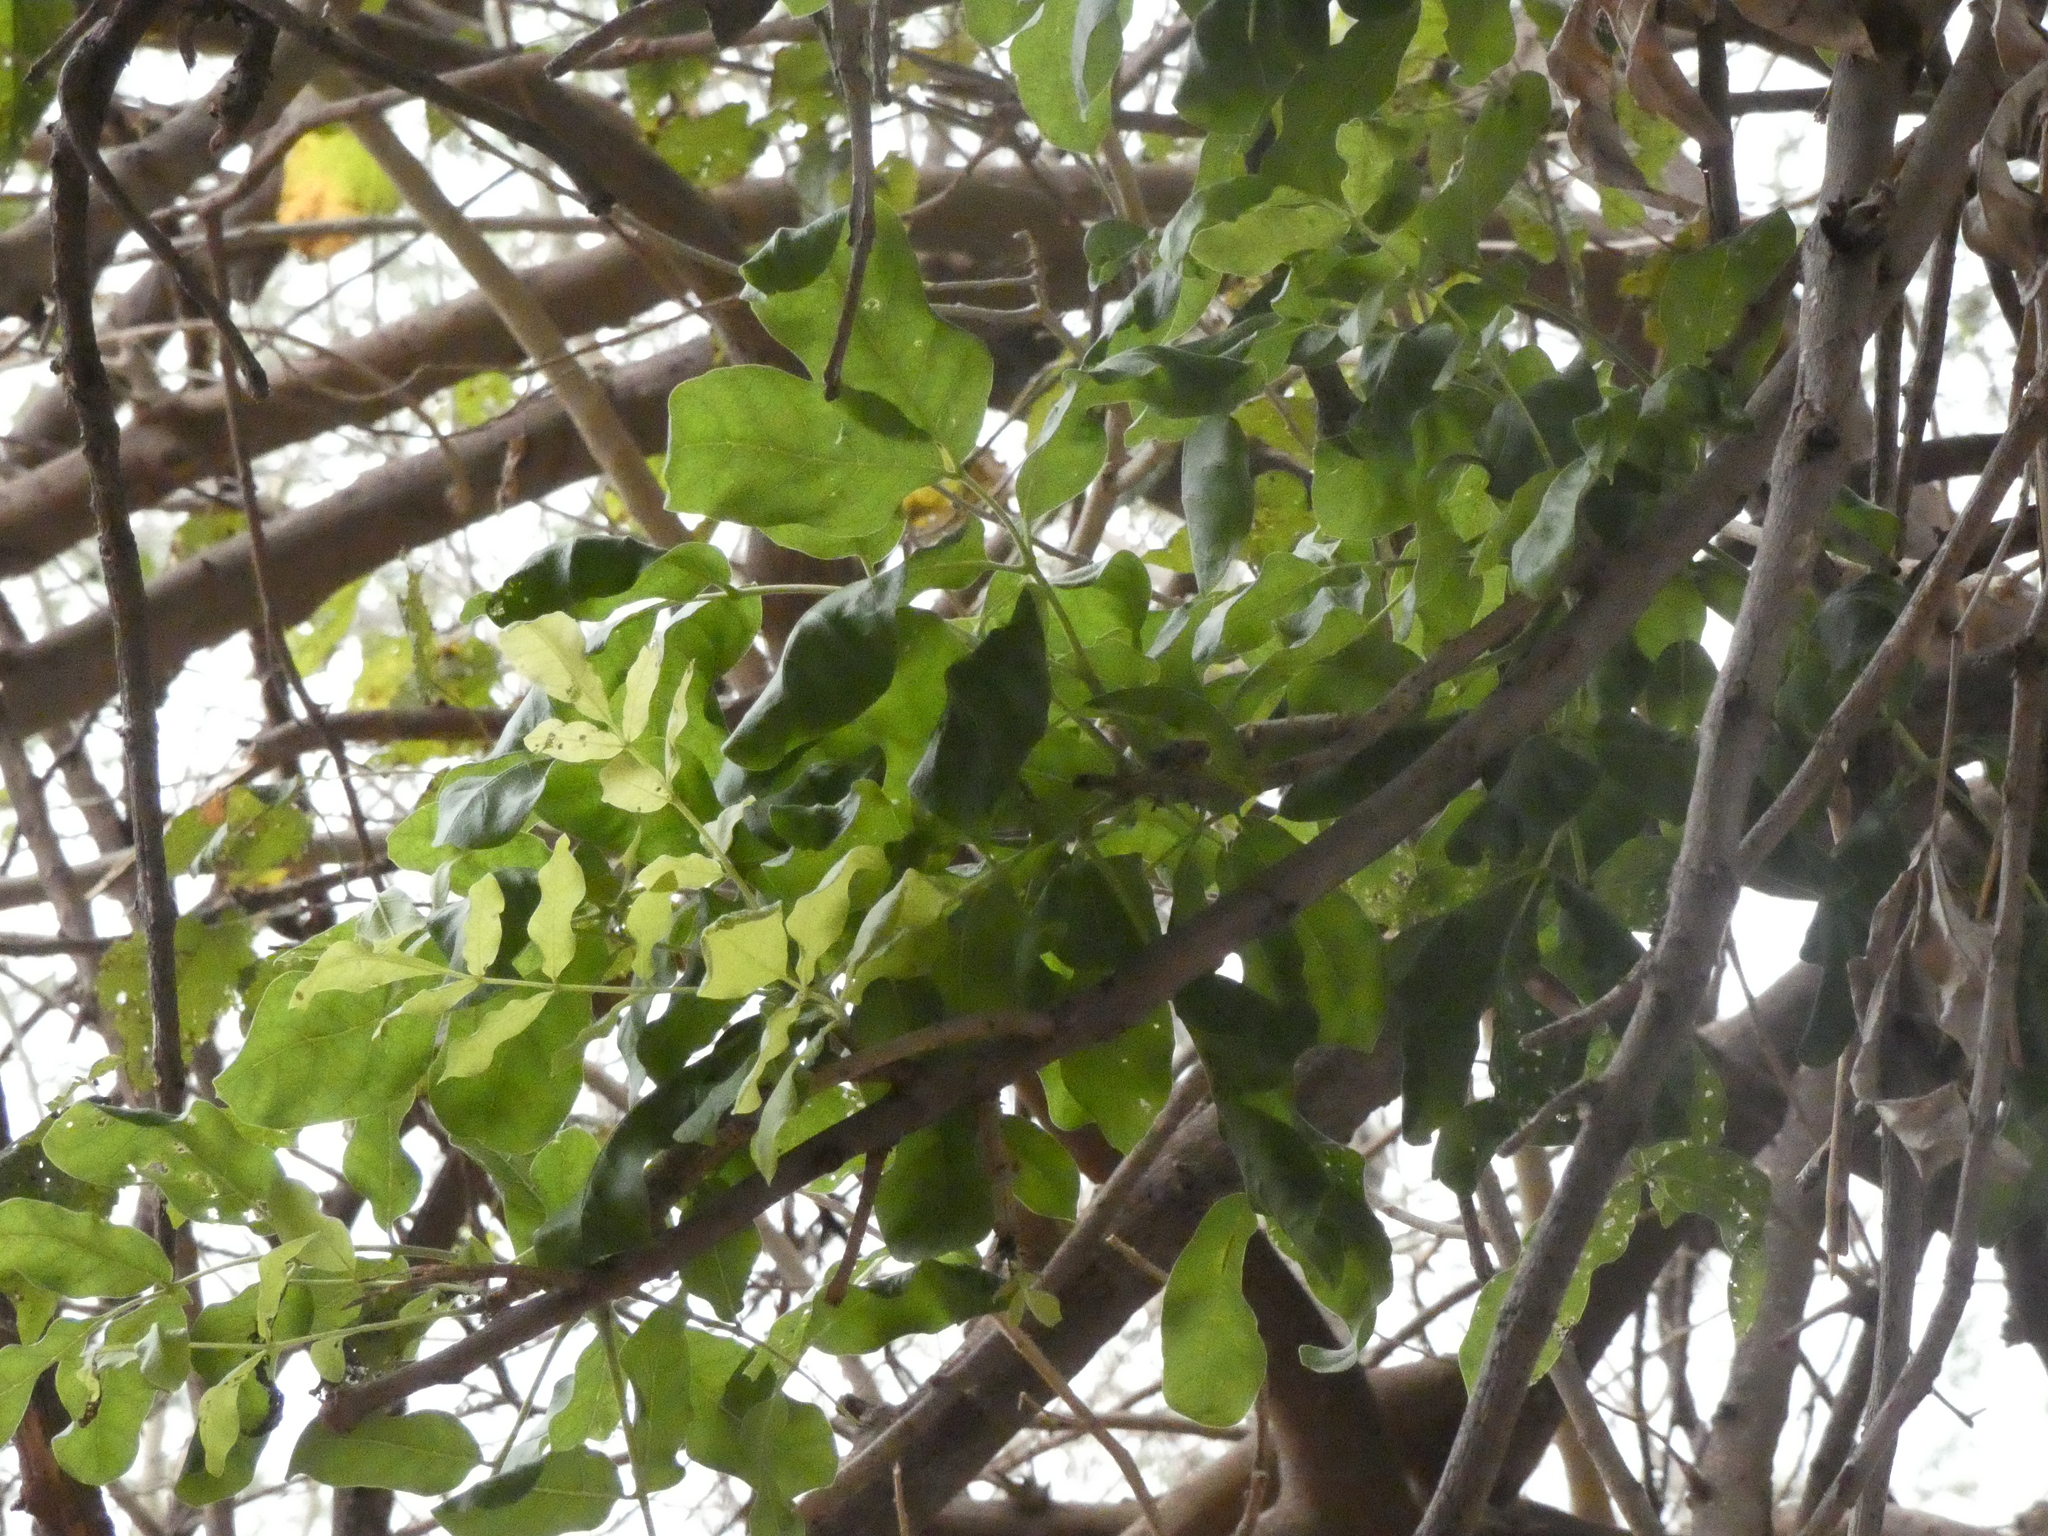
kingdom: Plantae
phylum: Tracheophyta
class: Magnoliopsida
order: Lamiales
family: Bignoniaceae
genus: Kigelia
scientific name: Kigelia africana
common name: Sausage tree
